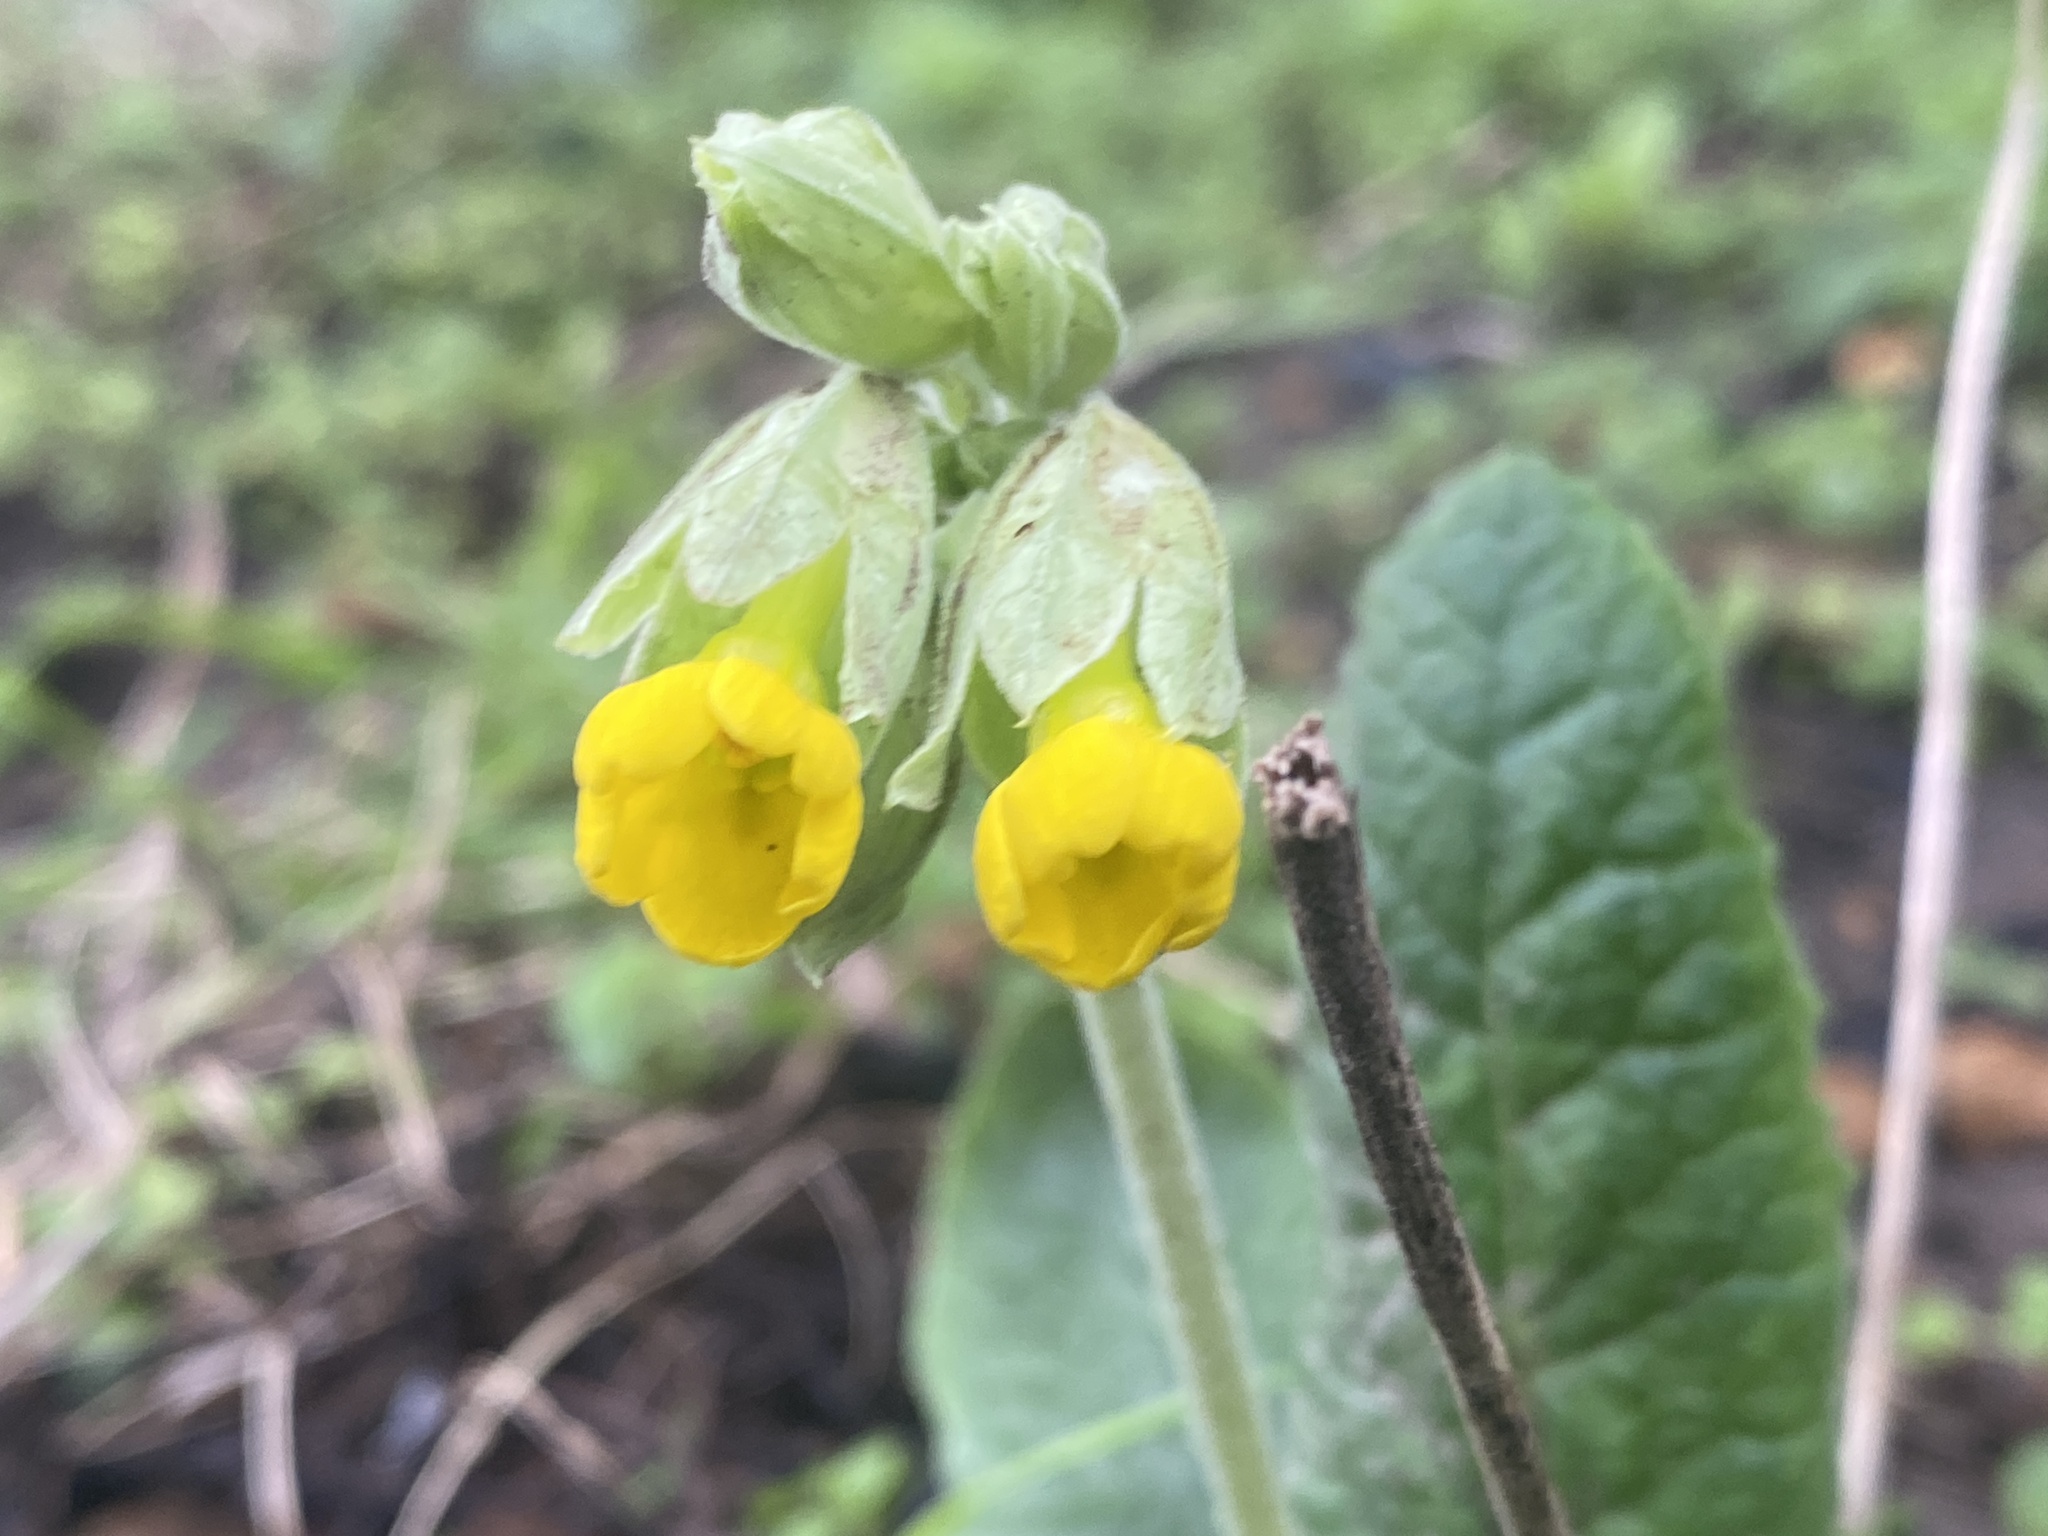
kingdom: Plantae
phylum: Tracheophyta
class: Magnoliopsida
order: Ericales
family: Primulaceae
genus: Primula
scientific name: Primula veris
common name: Cowslip
